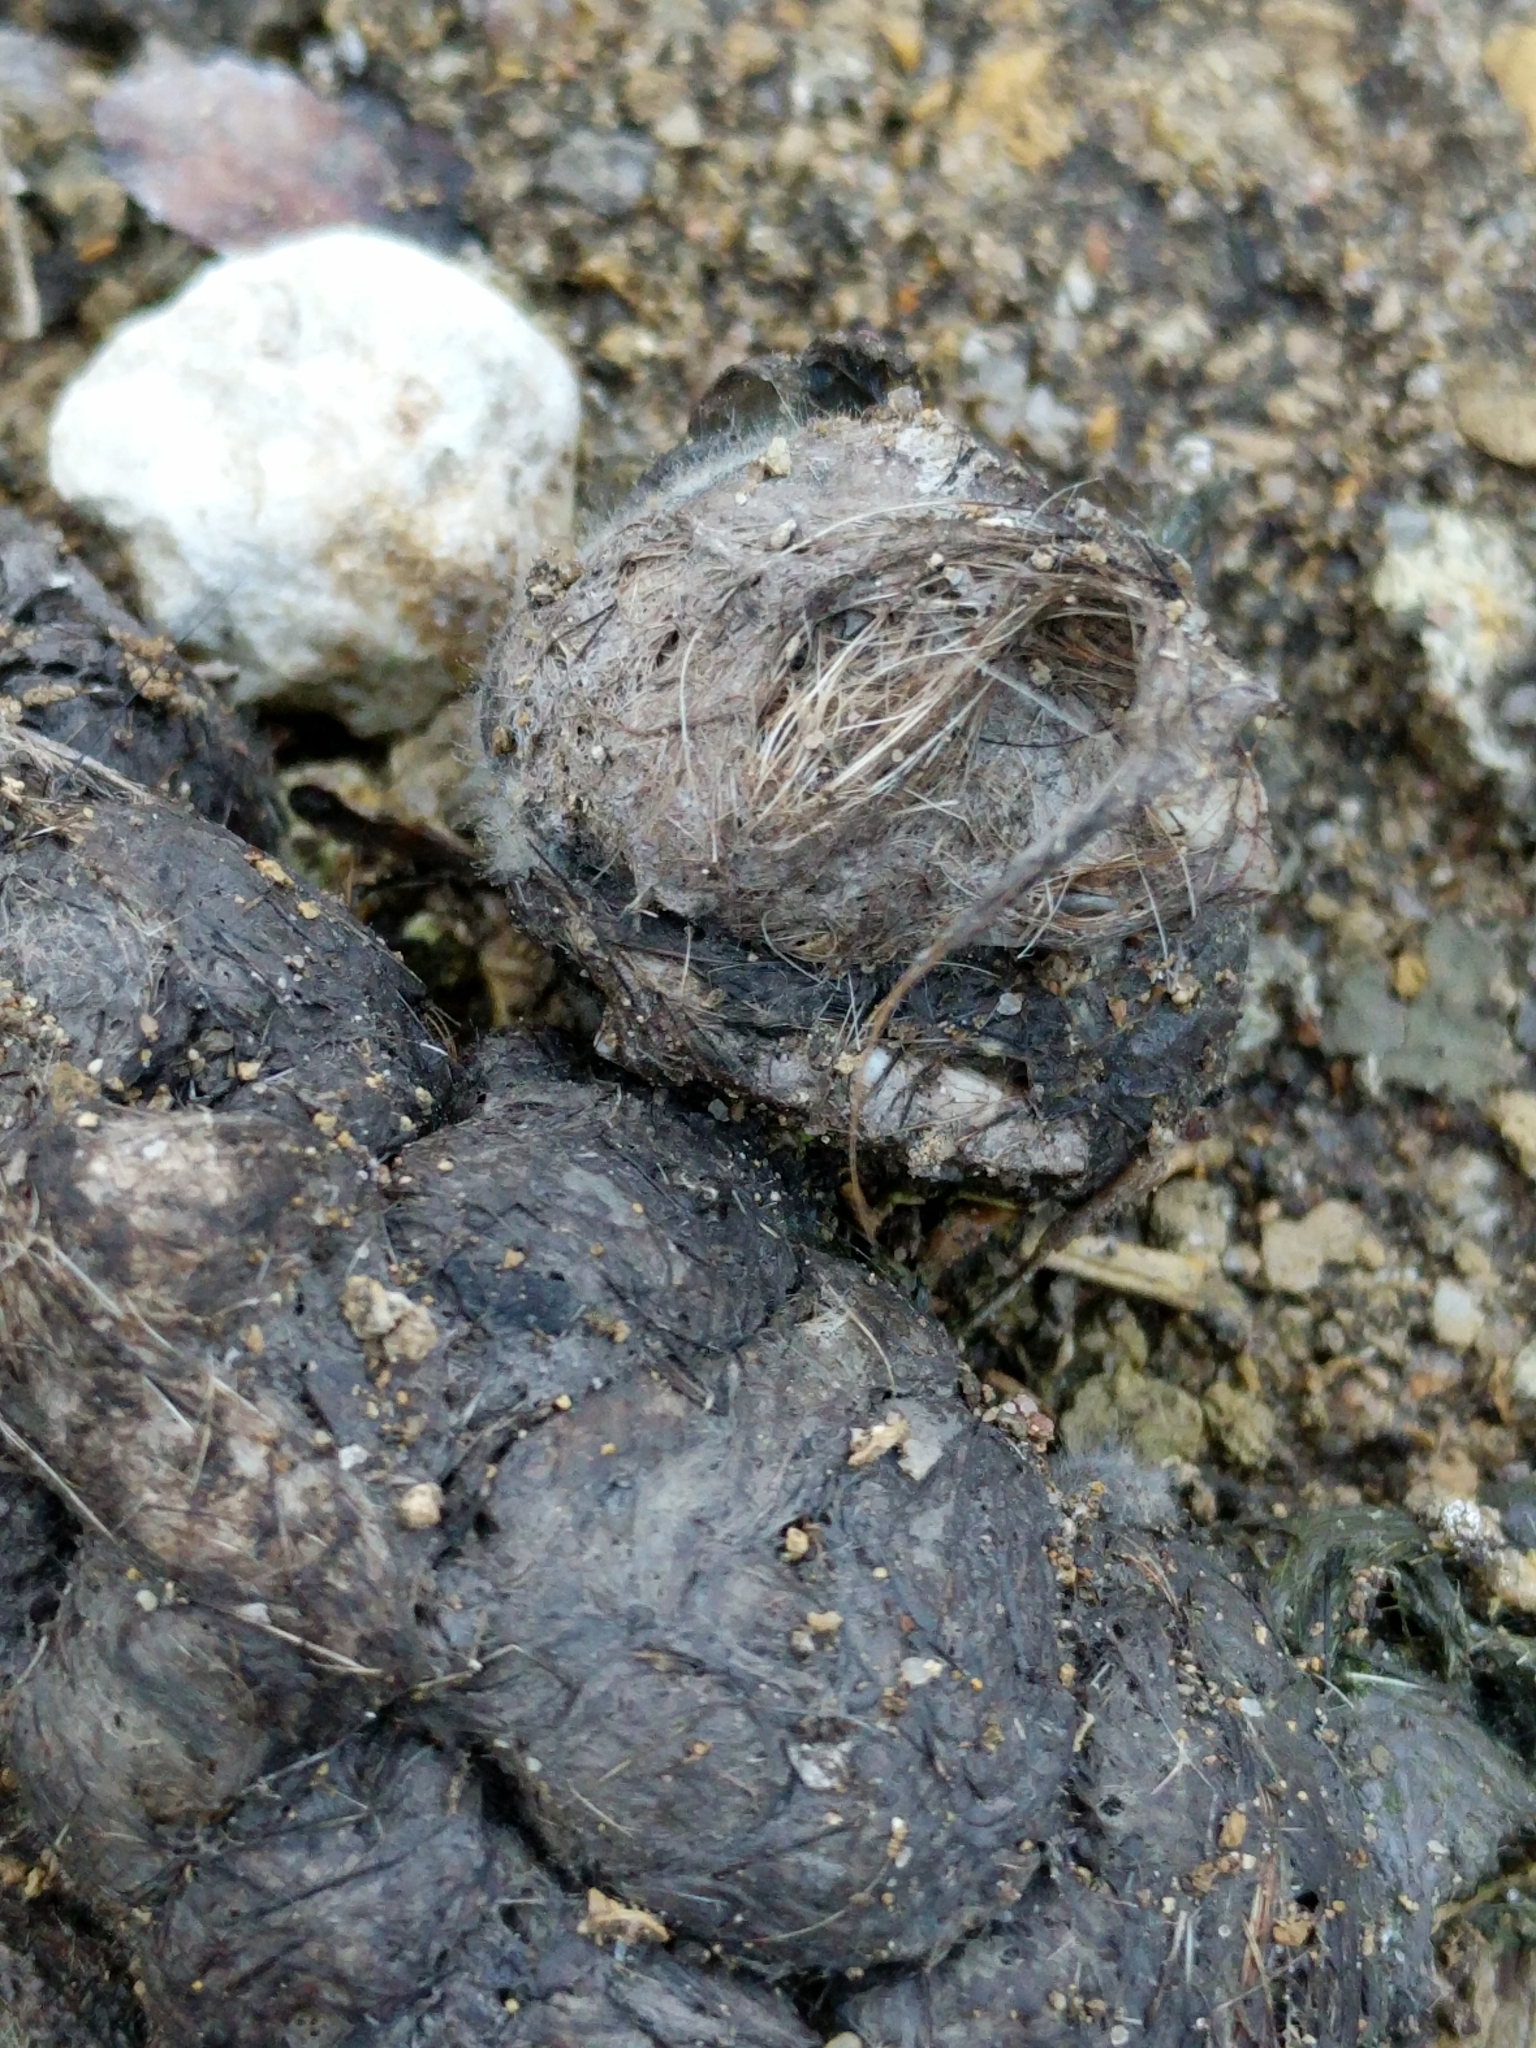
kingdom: Animalia
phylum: Chordata
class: Mammalia
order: Carnivora
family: Canidae
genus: Canis
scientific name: Canis latrans
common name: Coyote
